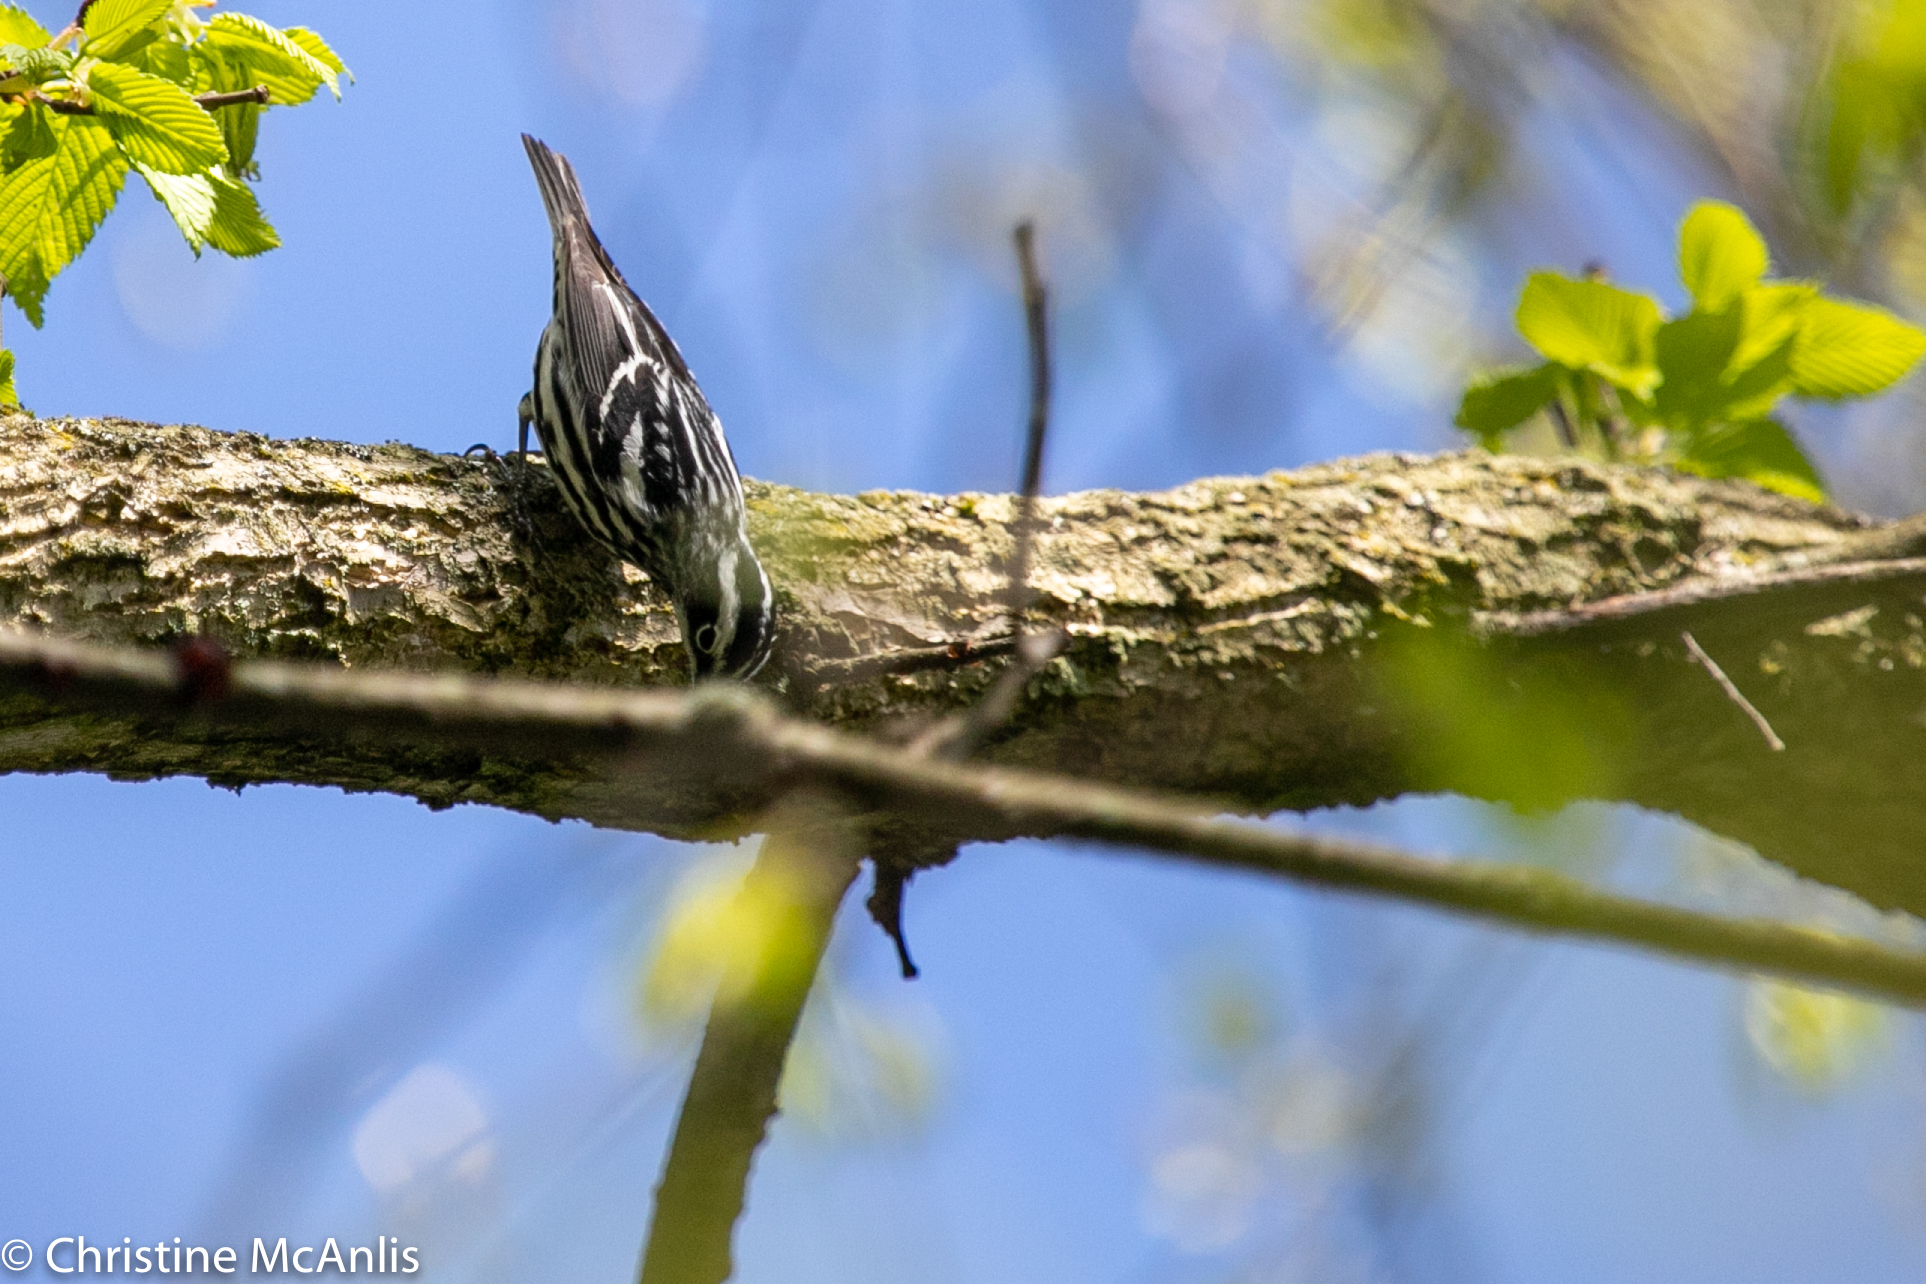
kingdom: Animalia
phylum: Chordata
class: Aves
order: Passeriformes
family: Parulidae
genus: Mniotilta
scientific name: Mniotilta varia
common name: Black-and-white warbler
